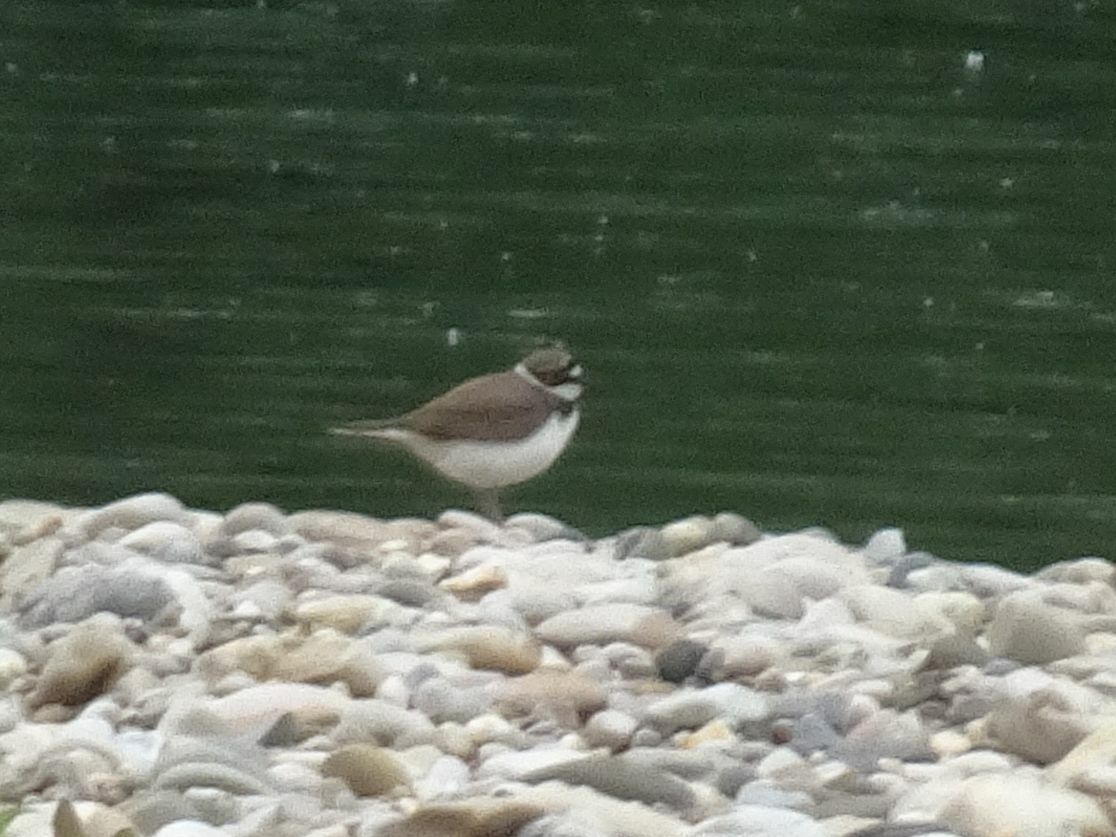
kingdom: Animalia
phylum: Chordata
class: Aves
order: Charadriiformes
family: Charadriidae
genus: Charadrius
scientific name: Charadrius dubius
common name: Little ringed plover
